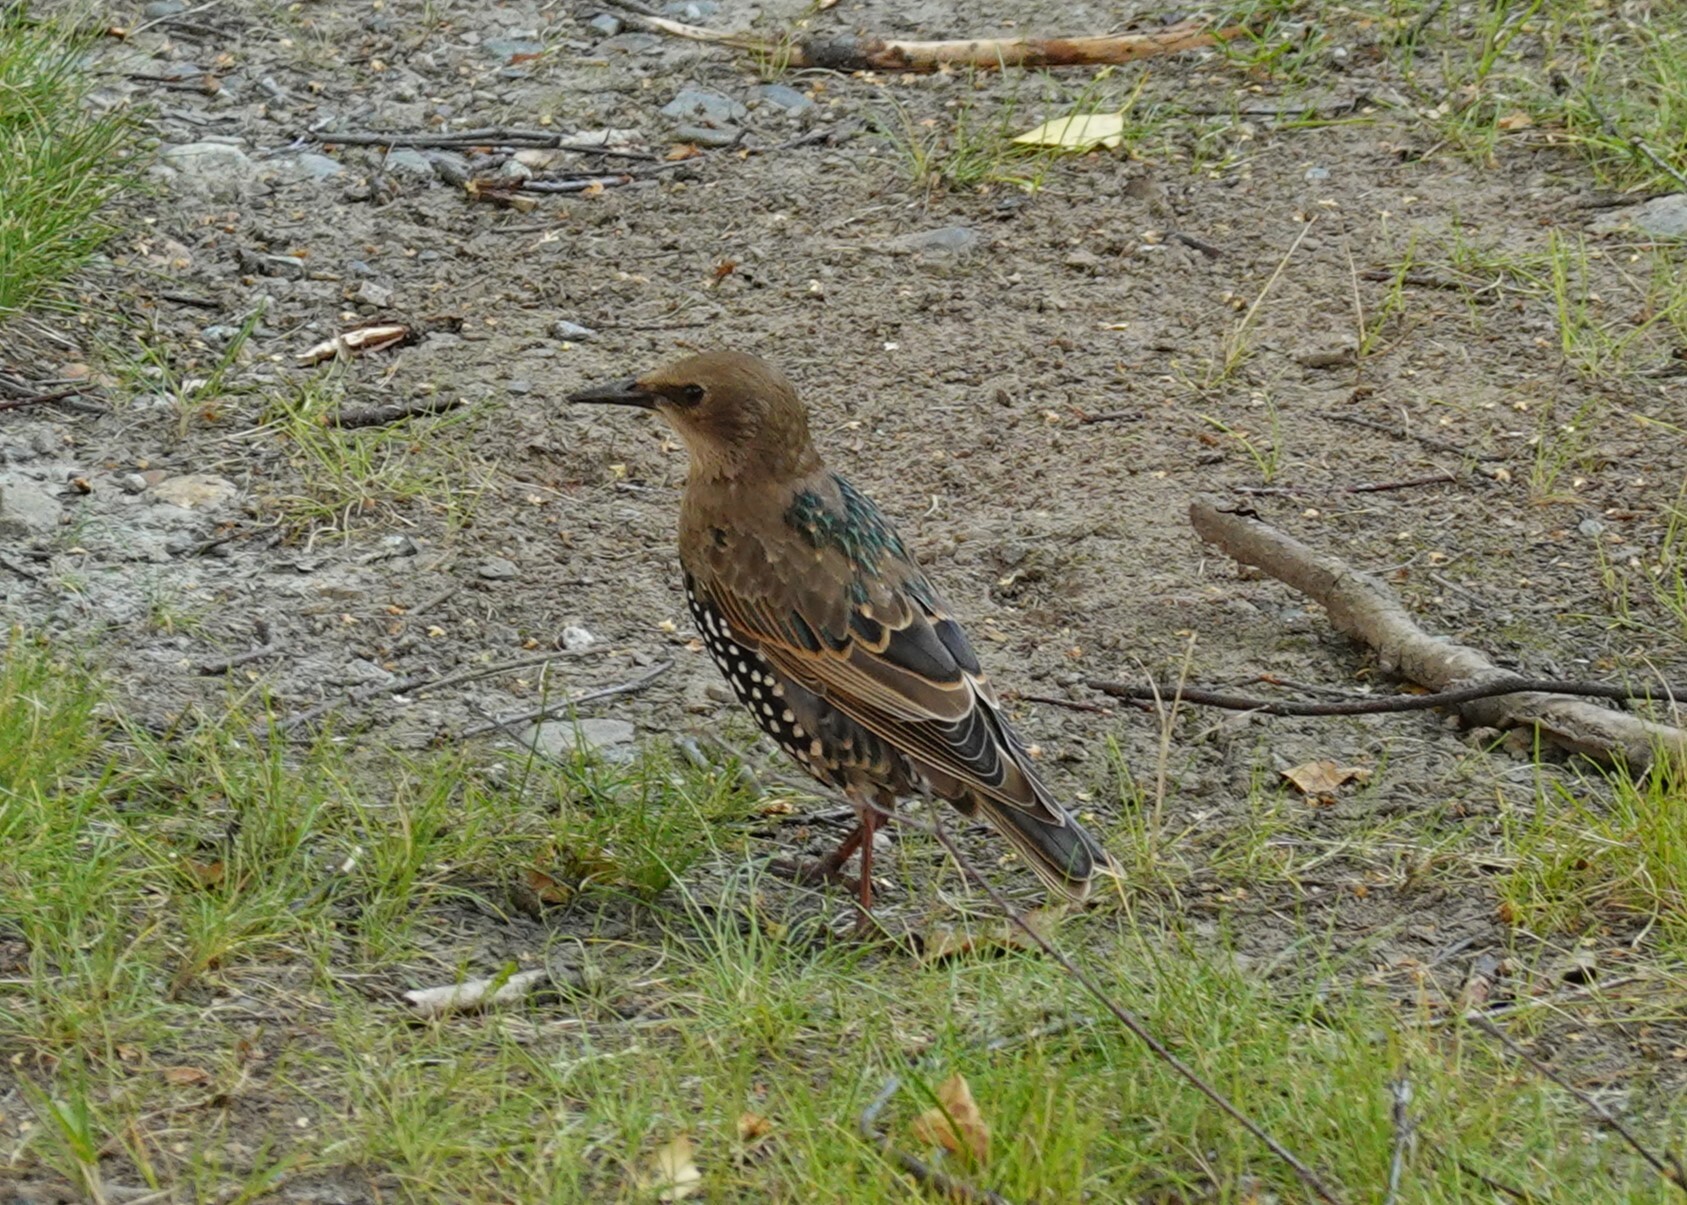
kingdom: Animalia
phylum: Chordata
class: Aves
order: Passeriformes
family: Sturnidae
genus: Sturnus
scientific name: Sturnus vulgaris
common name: Common starling
